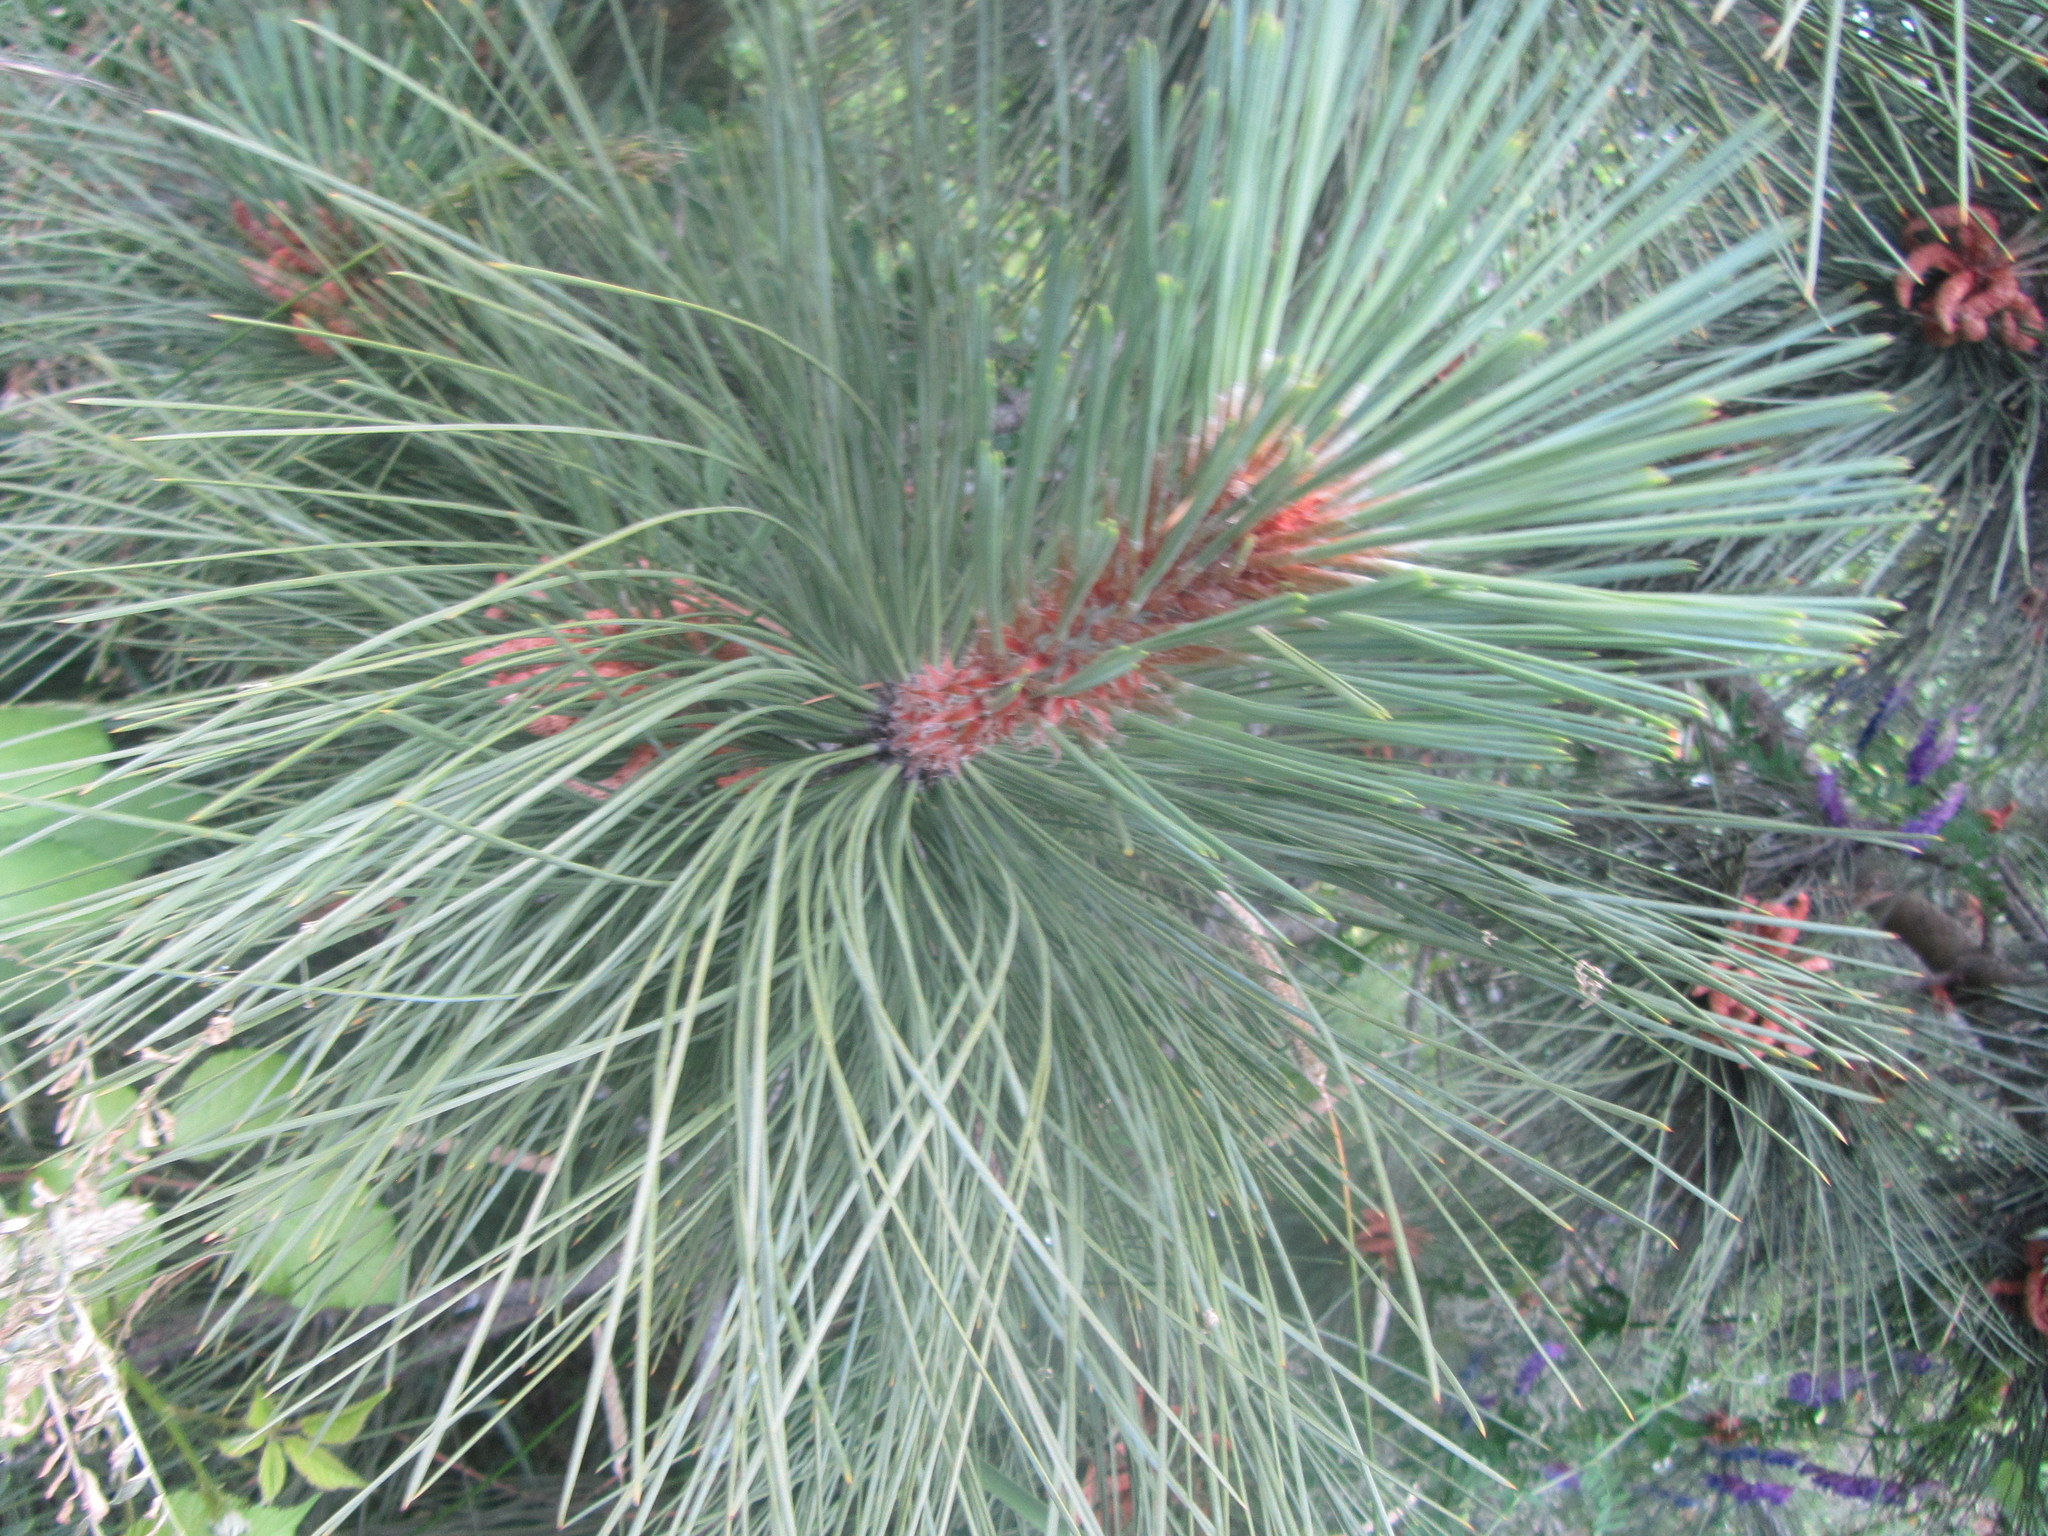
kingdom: Plantae
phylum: Tracheophyta
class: Pinopsida
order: Pinales
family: Pinaceae
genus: Pinus
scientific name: Pinus ponderosa
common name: Western yellow-pine
